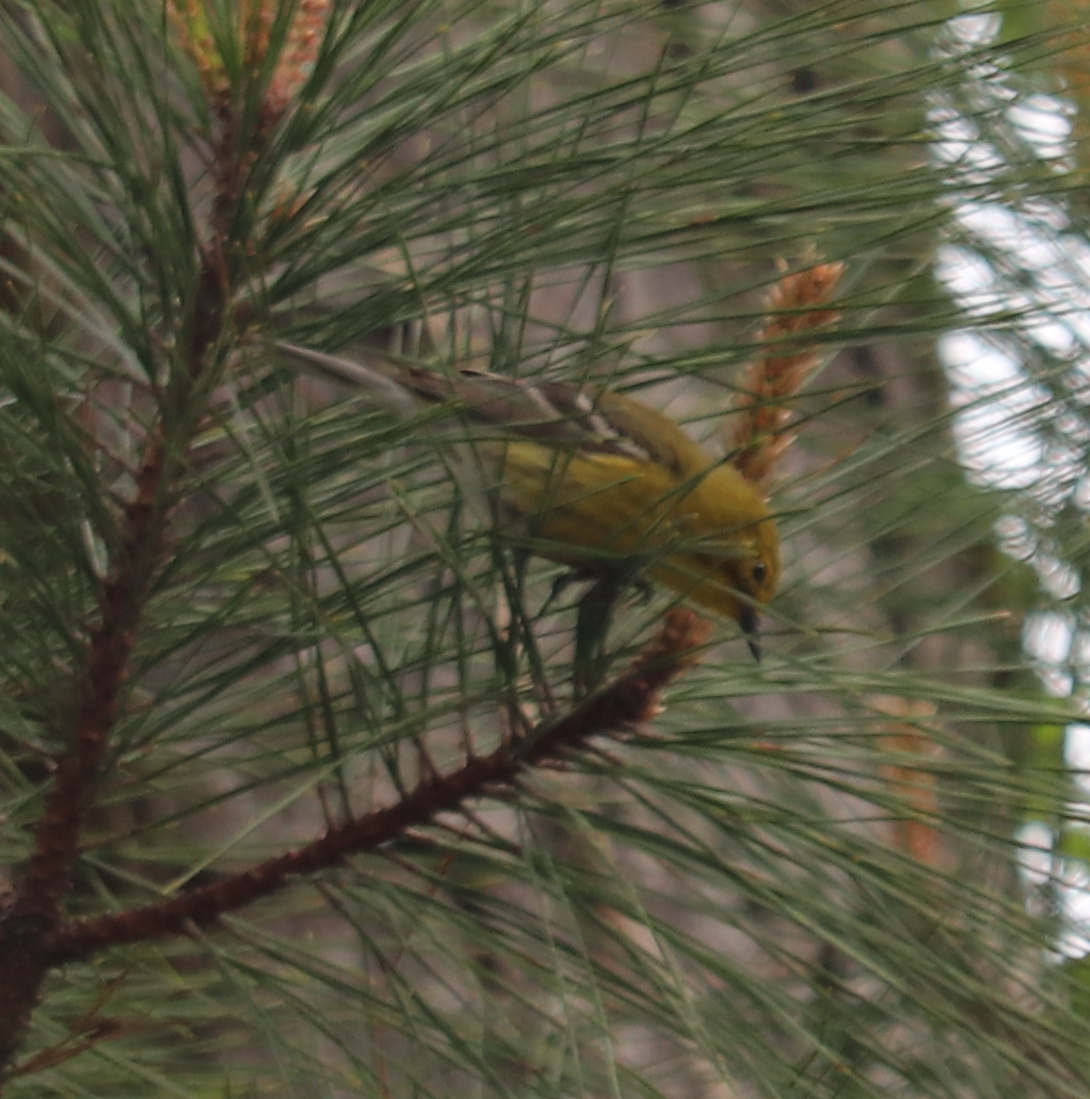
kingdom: Animalia
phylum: Chordata
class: Aves
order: Passeriformes
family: Parulidae
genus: Setophaga
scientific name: Setophaga pinus
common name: Pine warbler
